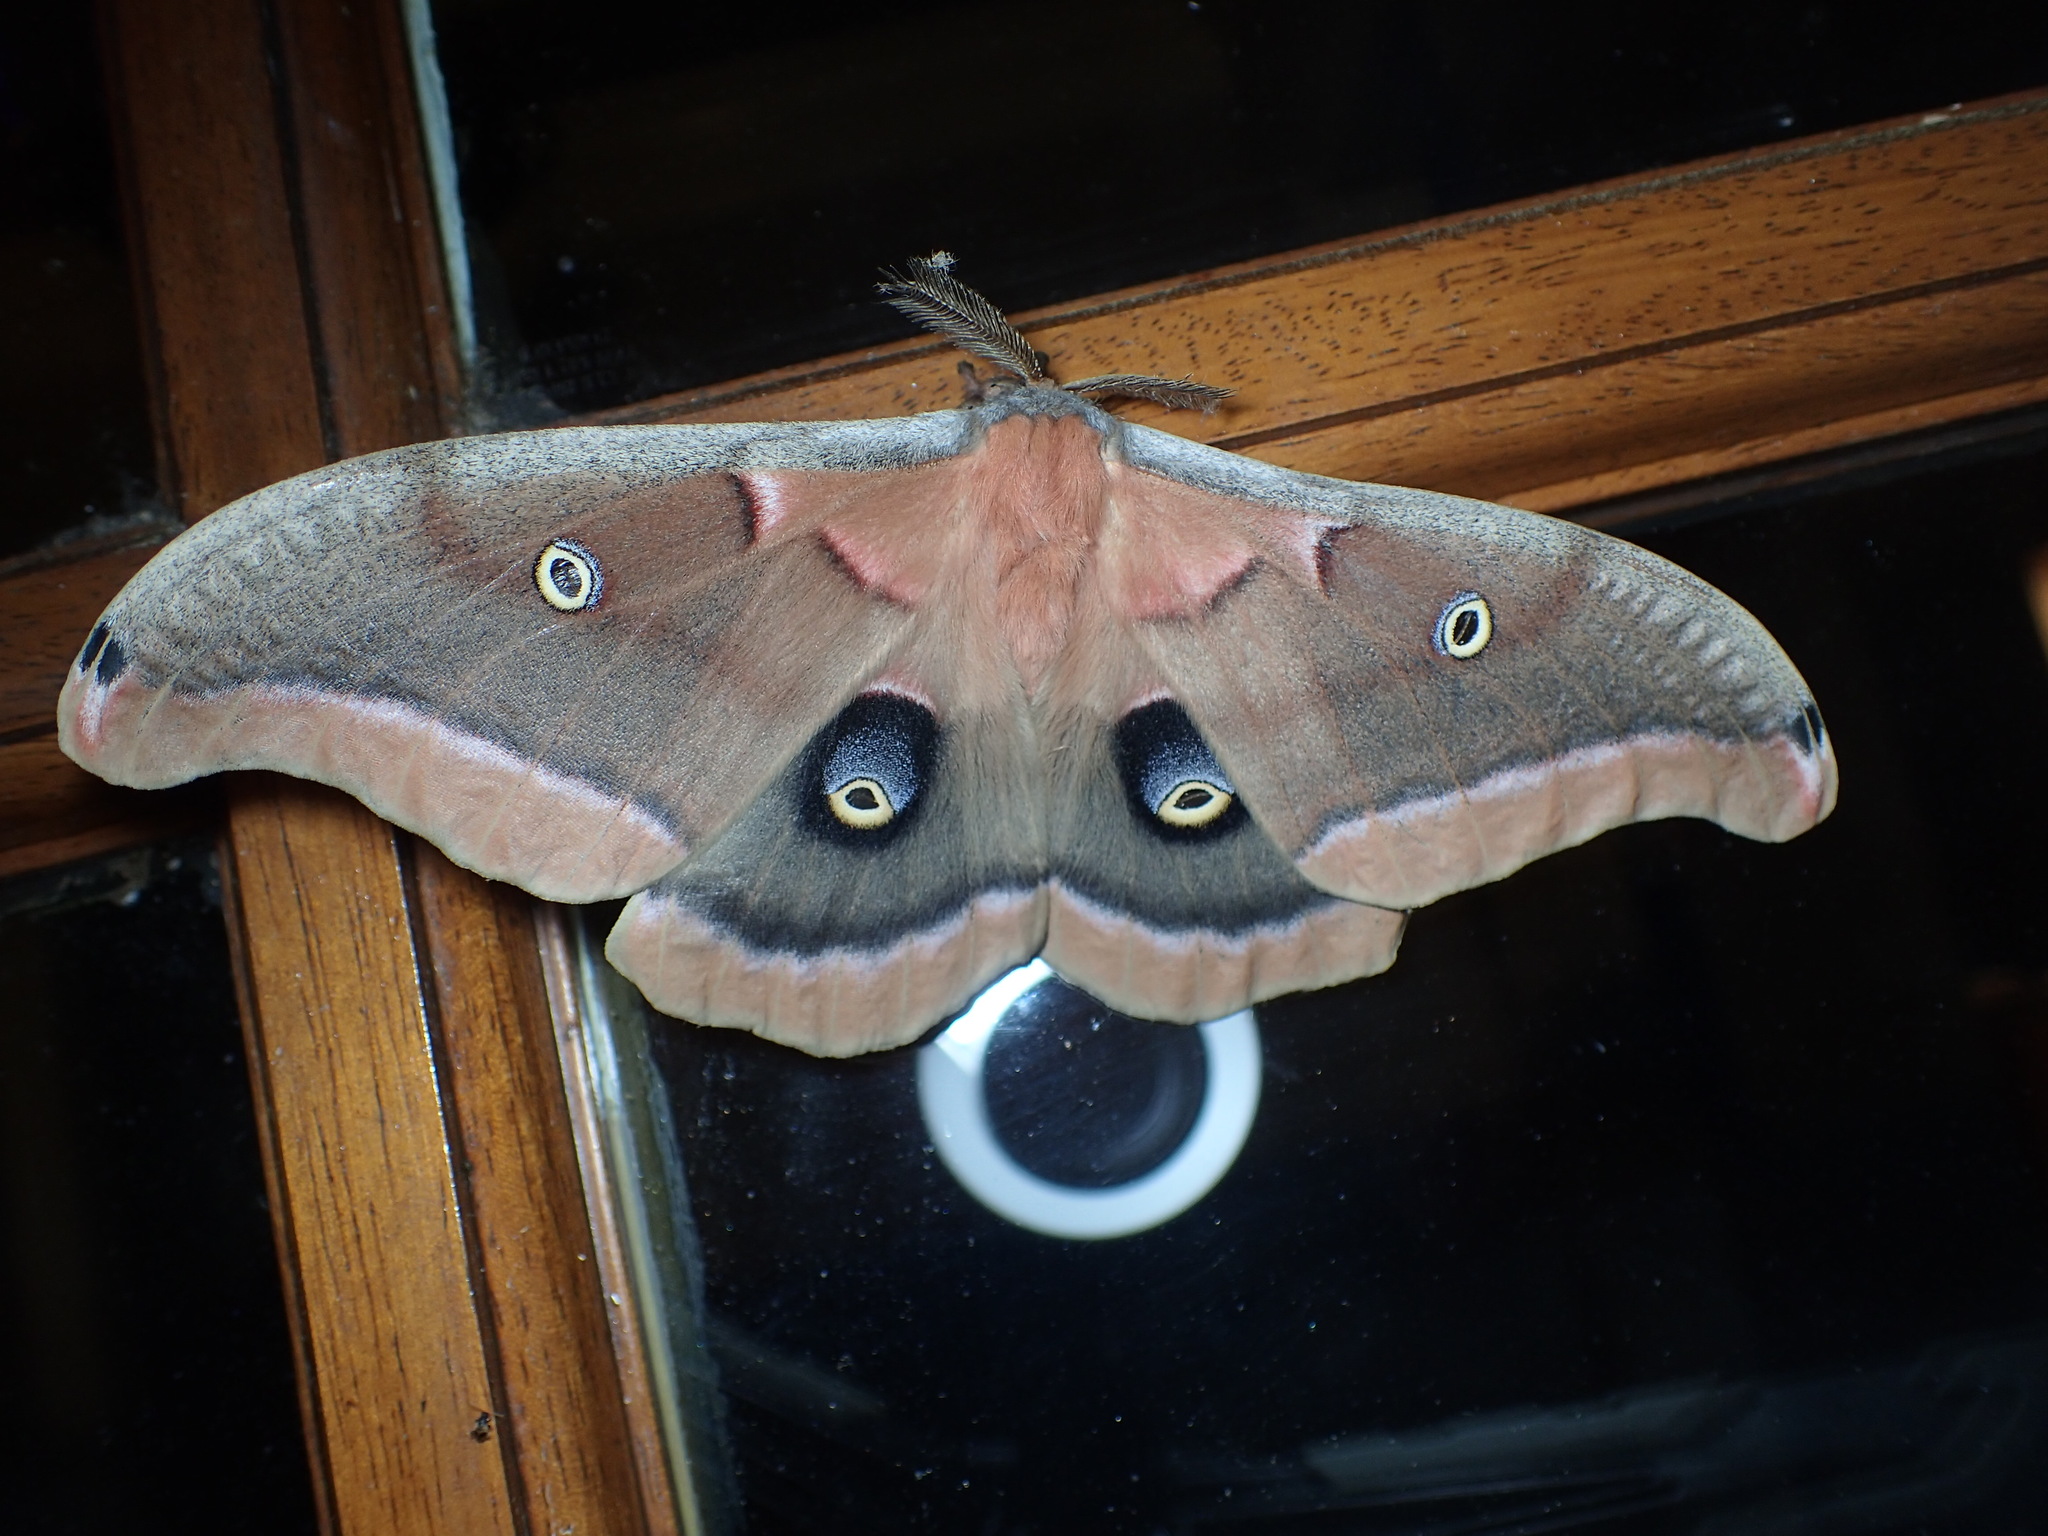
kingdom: Animalia
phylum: Arthropoda
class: Insecta
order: Lepidoptera
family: Saturniidae
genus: Antheraea
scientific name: Antheraea polyphemus
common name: Polyphemus moth
